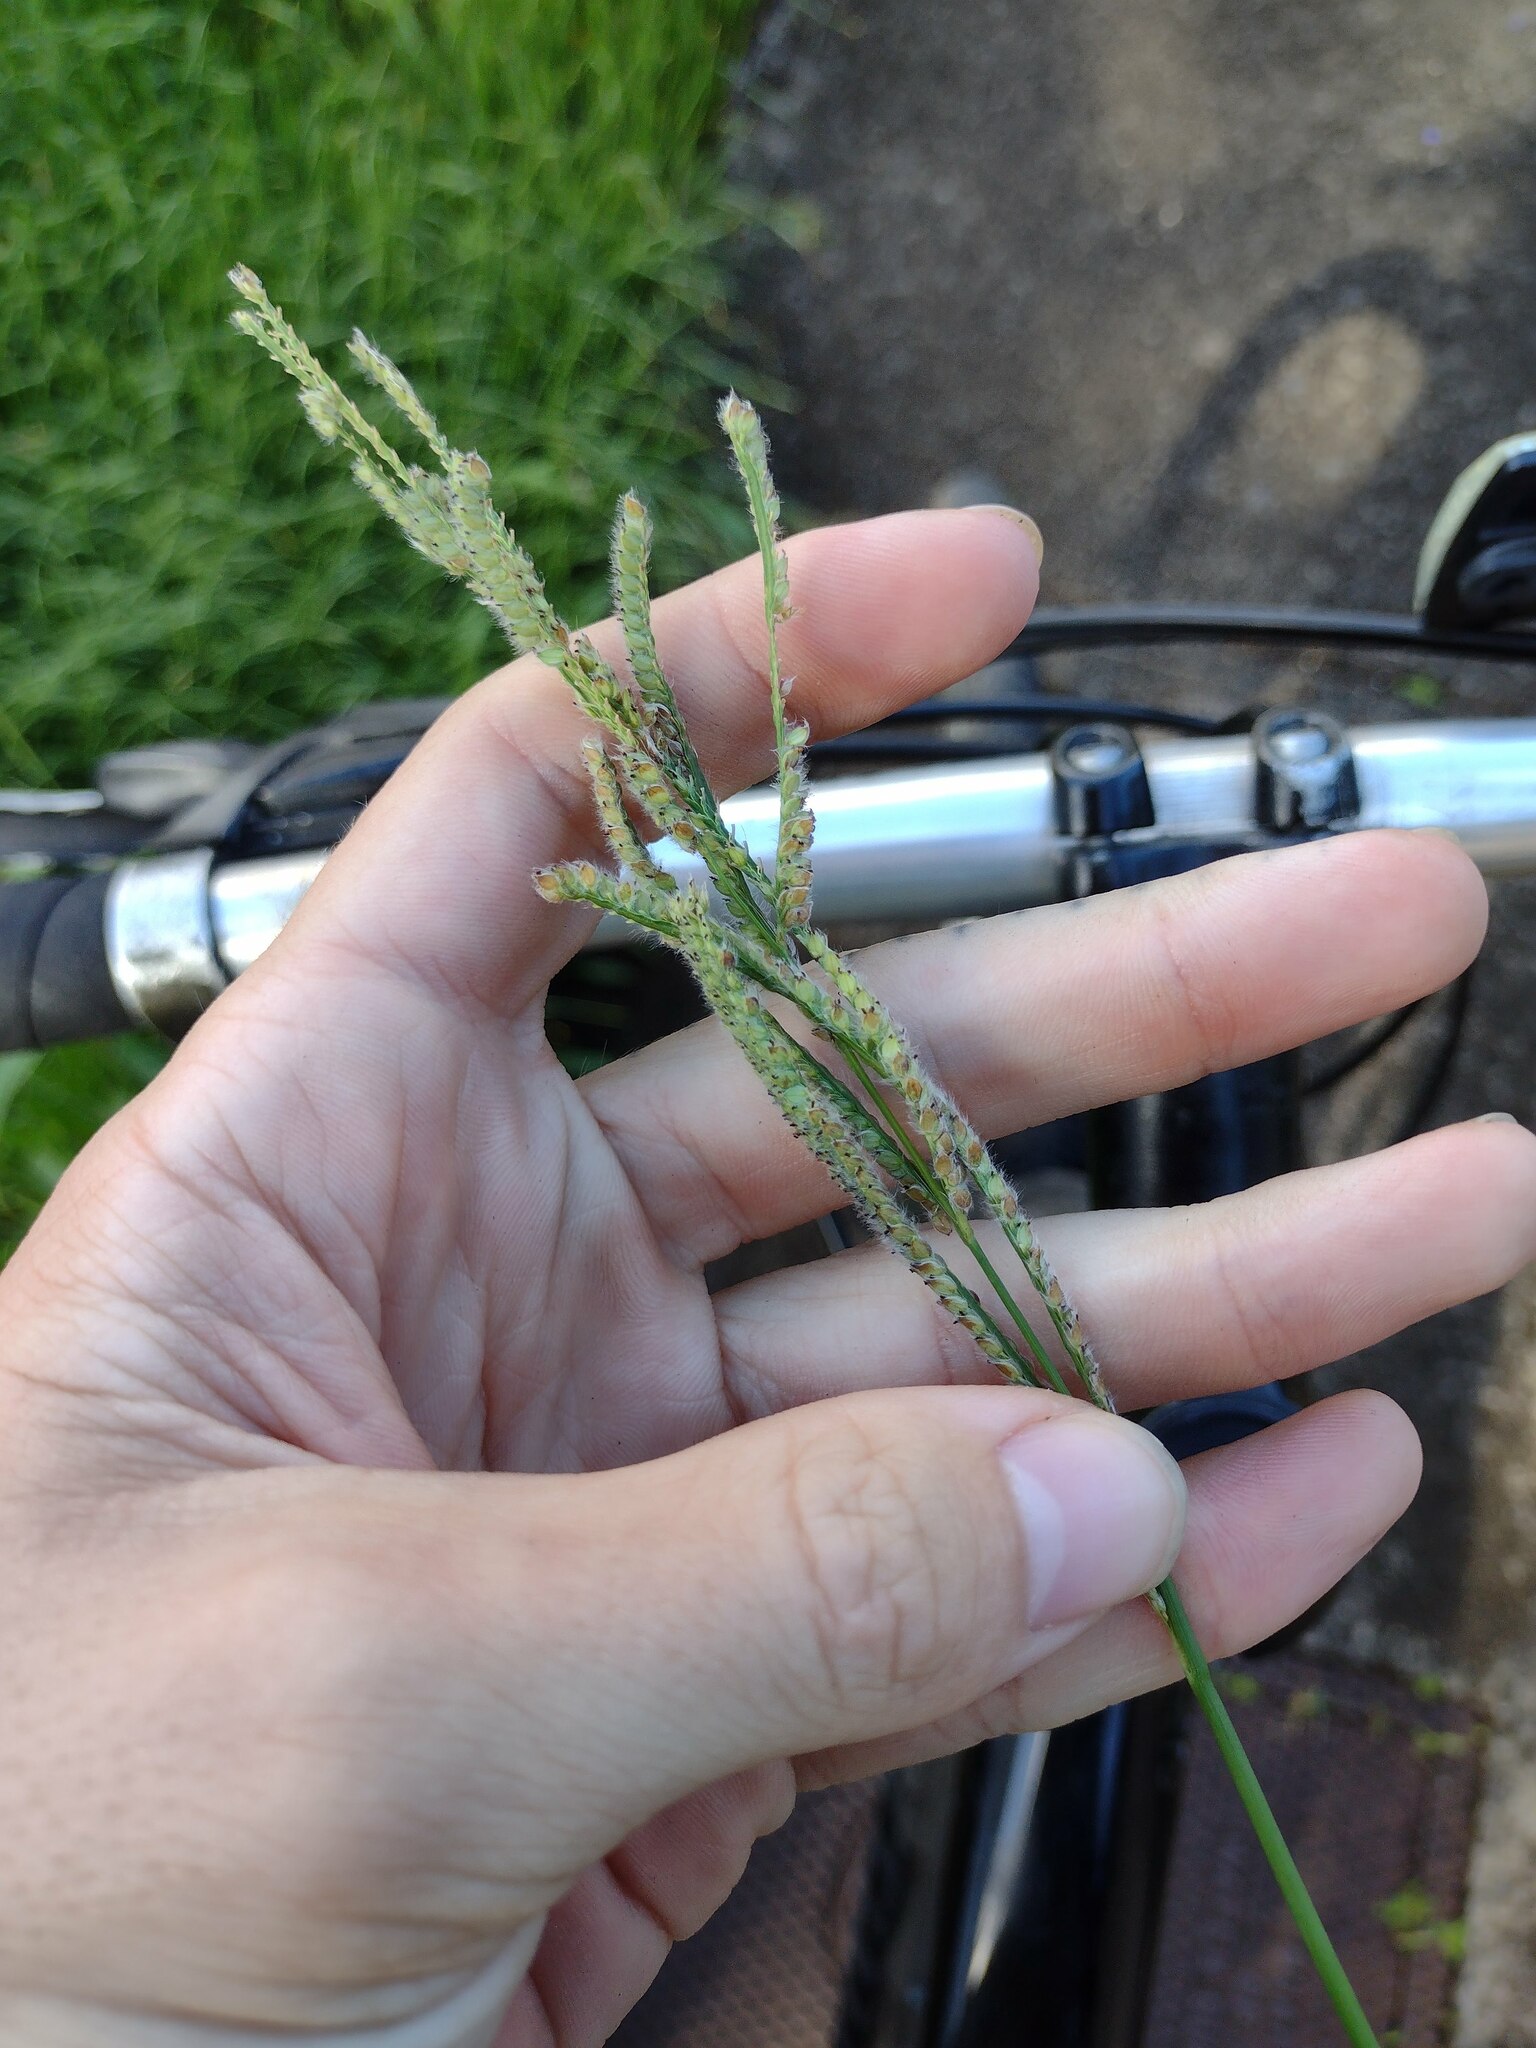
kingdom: Plantae
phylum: Tracheophyta
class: Liliopsida
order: Poales
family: Poaceae
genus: Paspalum
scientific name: Paspalum urvillei
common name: Vasey's grass
